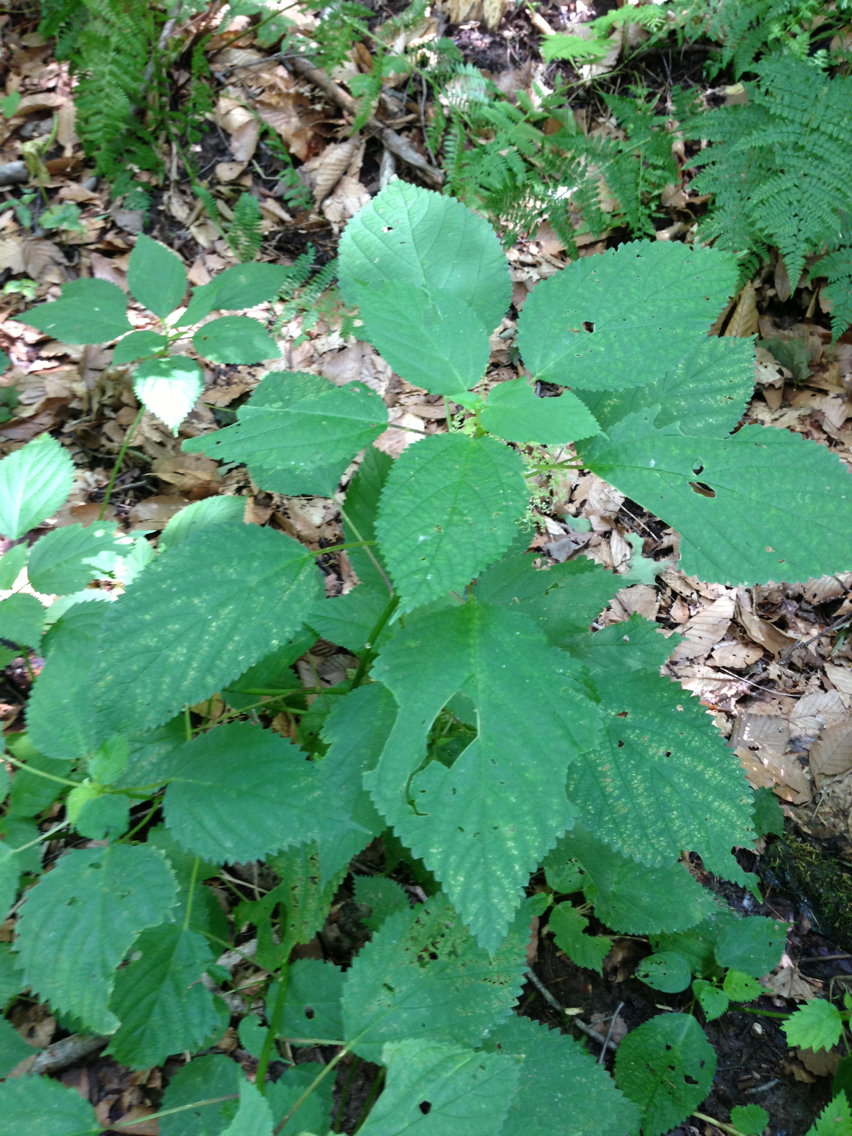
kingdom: Plantae
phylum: Tracheophyta
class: Magnoliopsida
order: Rosales
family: Urticaceae
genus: Laportea
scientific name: Laportea canadensis
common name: Canada nettle
